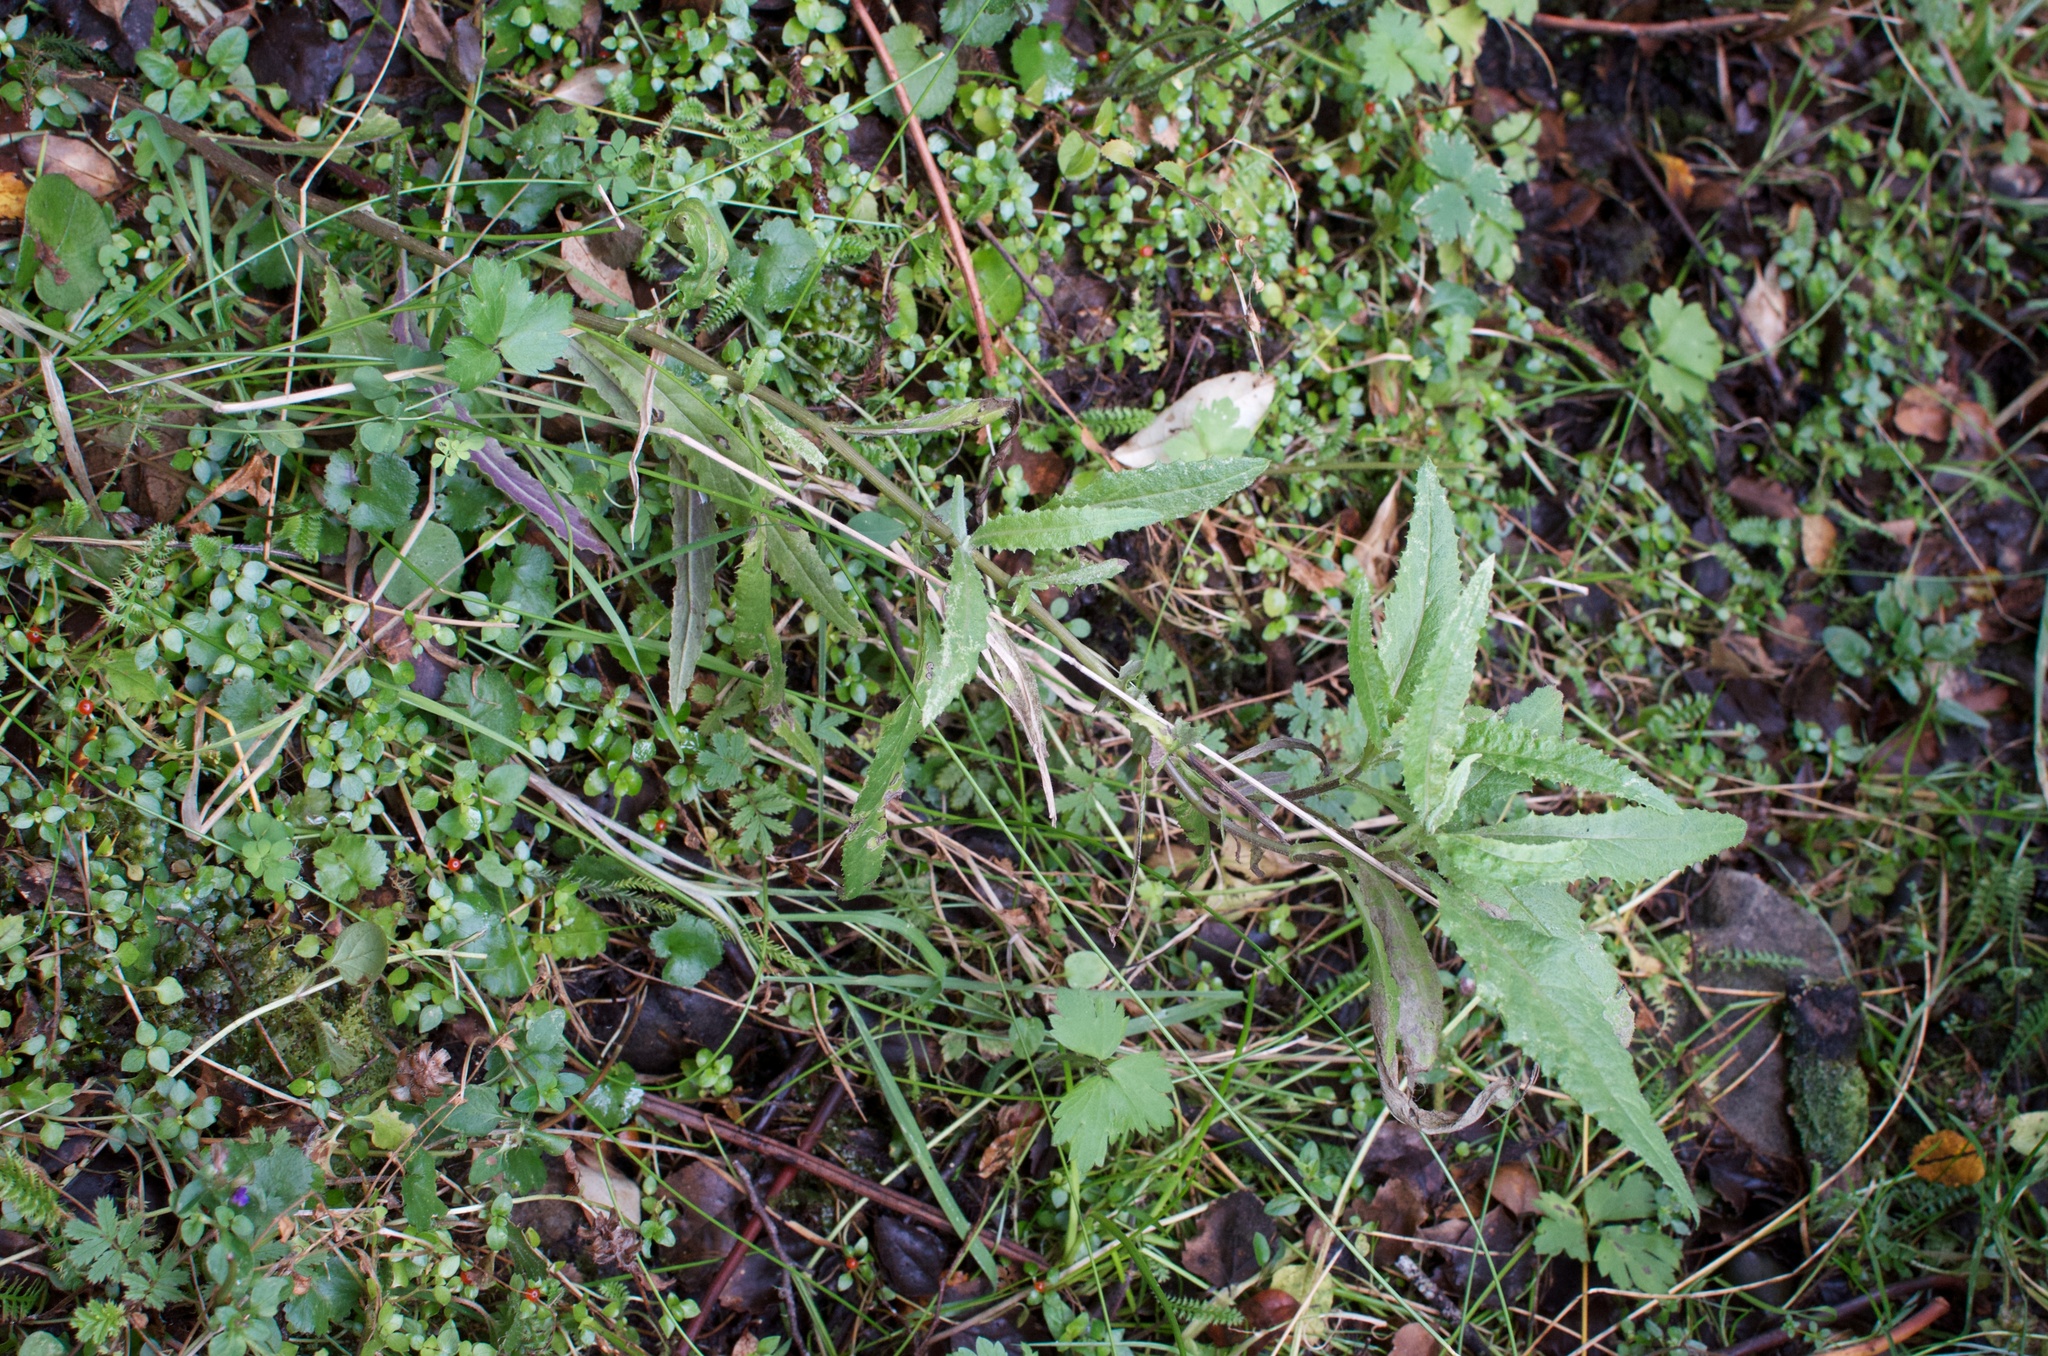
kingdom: Plantae
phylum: Tracheophyta
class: Magnoliopsida
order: Asterales
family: Asteraceae
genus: Senecio
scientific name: Senecio minimus
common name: Toothed fireweed
